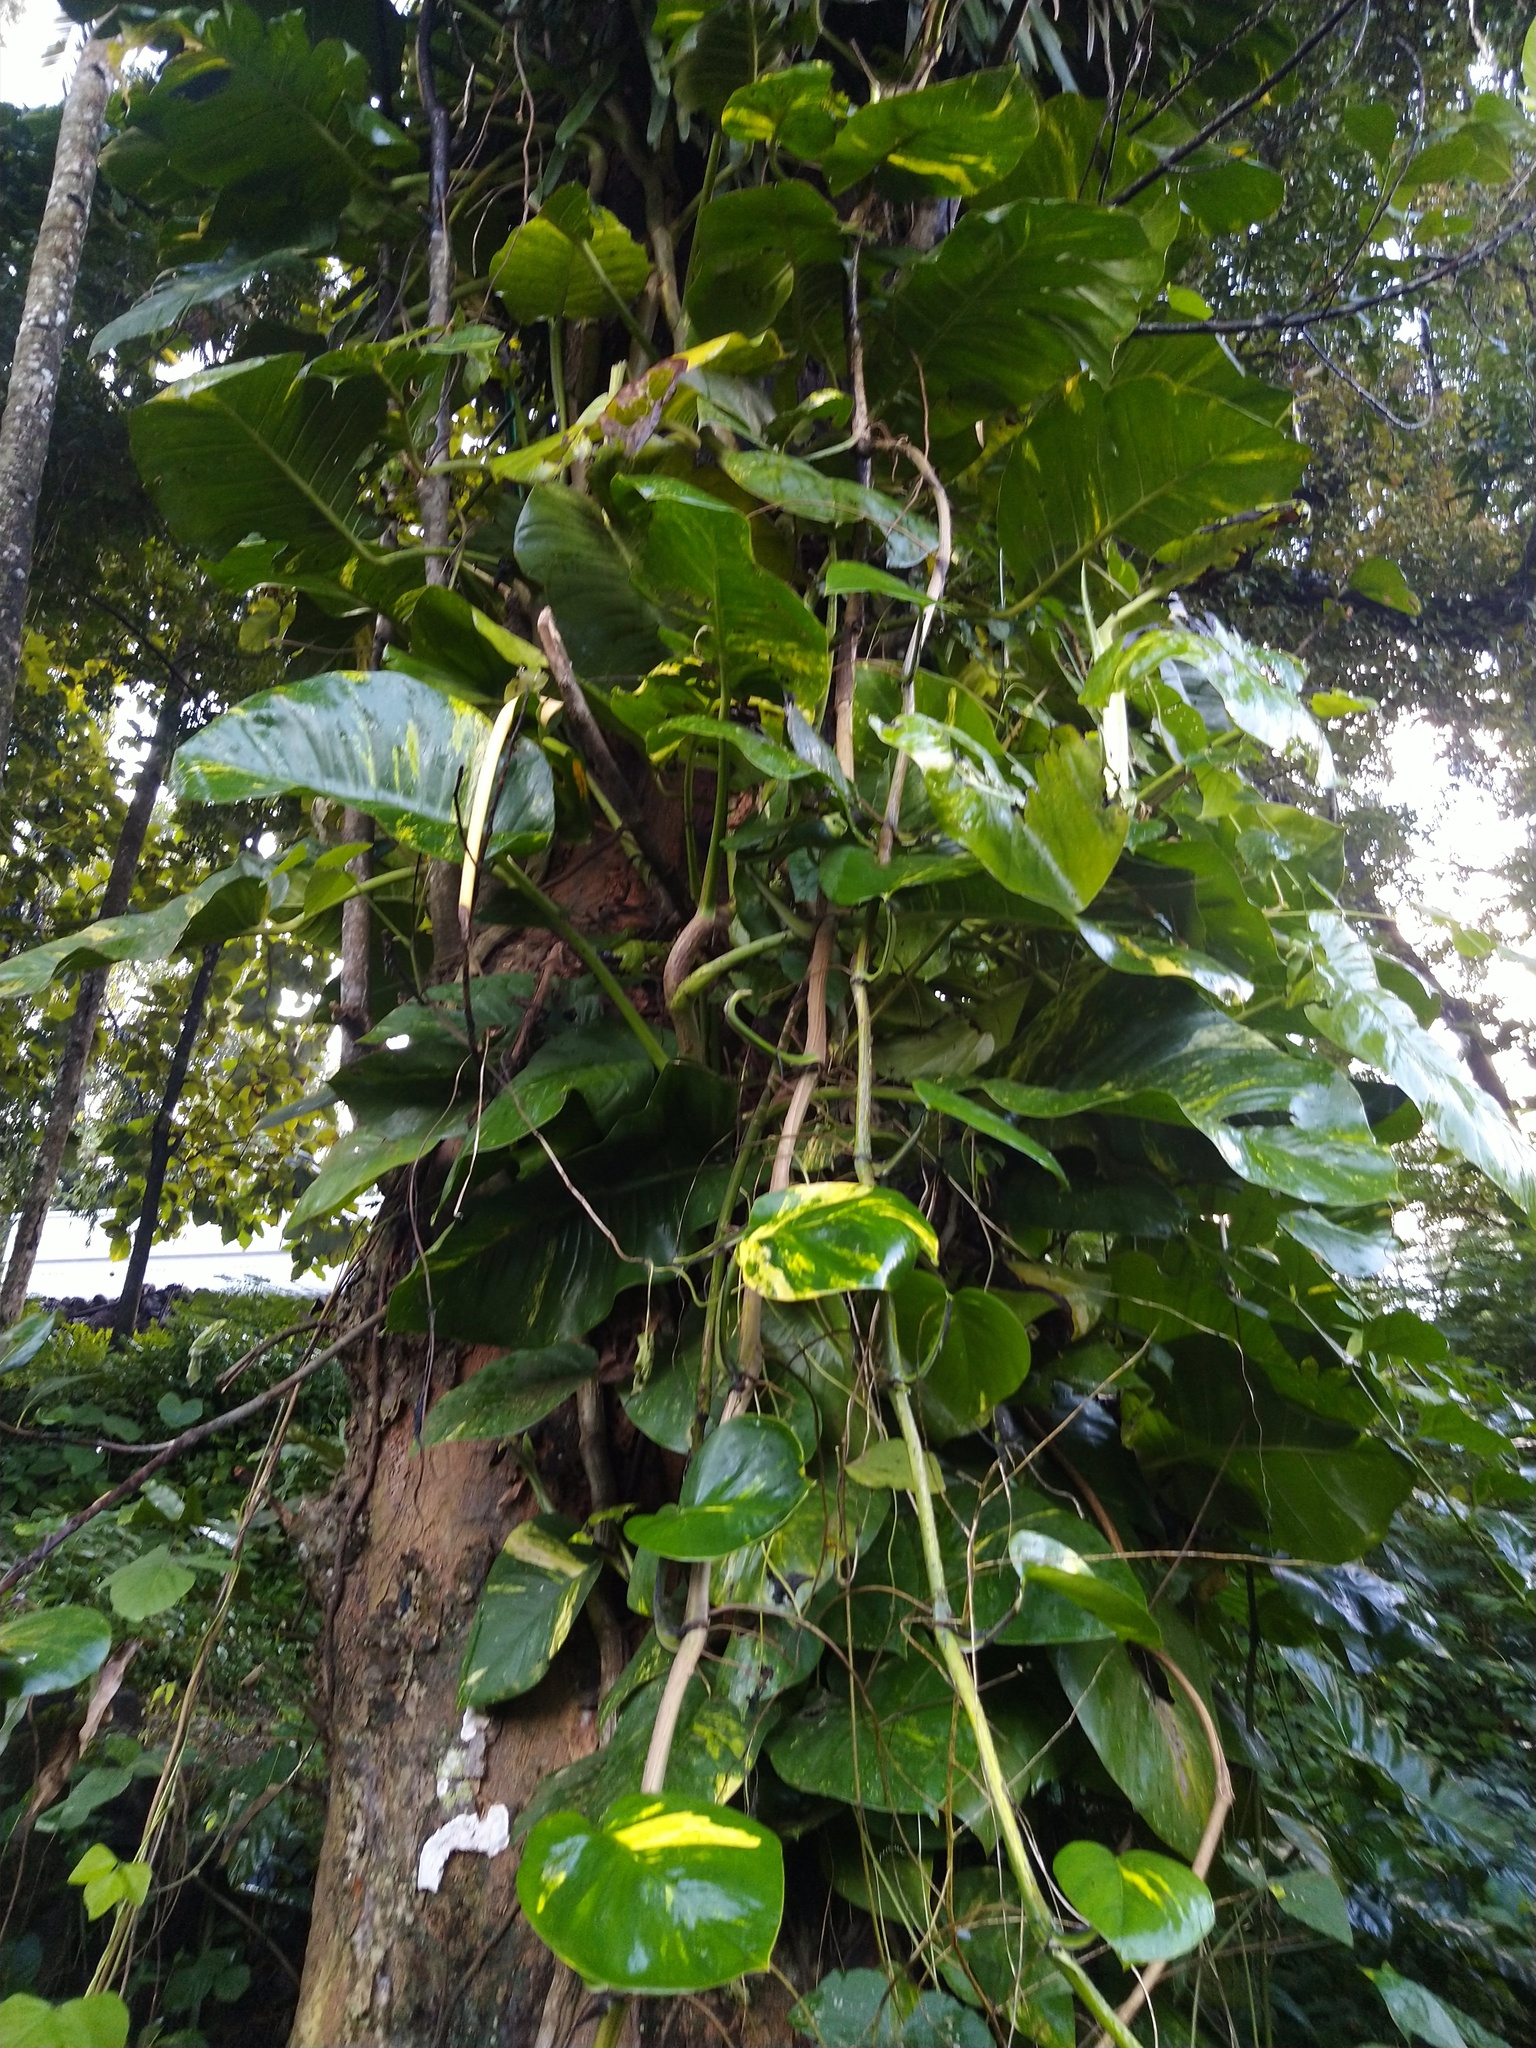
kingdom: Plantae
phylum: Tracheophyta
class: Liliopsida
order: Alismatales
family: Araceae
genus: Epipremnum
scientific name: Epipremnum aureum
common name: Golden hunter's-robe
